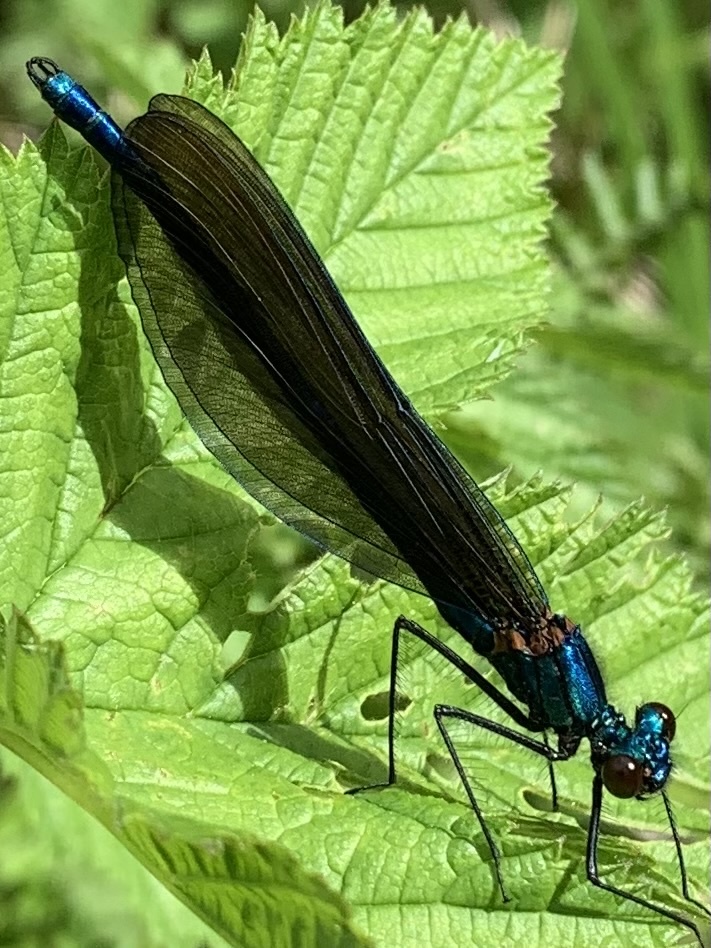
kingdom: Animalia
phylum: Arthropoda
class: Insecta
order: Odonata
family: Calopterygidae
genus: Calopteryx
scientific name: Calopteryx virgo
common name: Beautiful demoiselle
